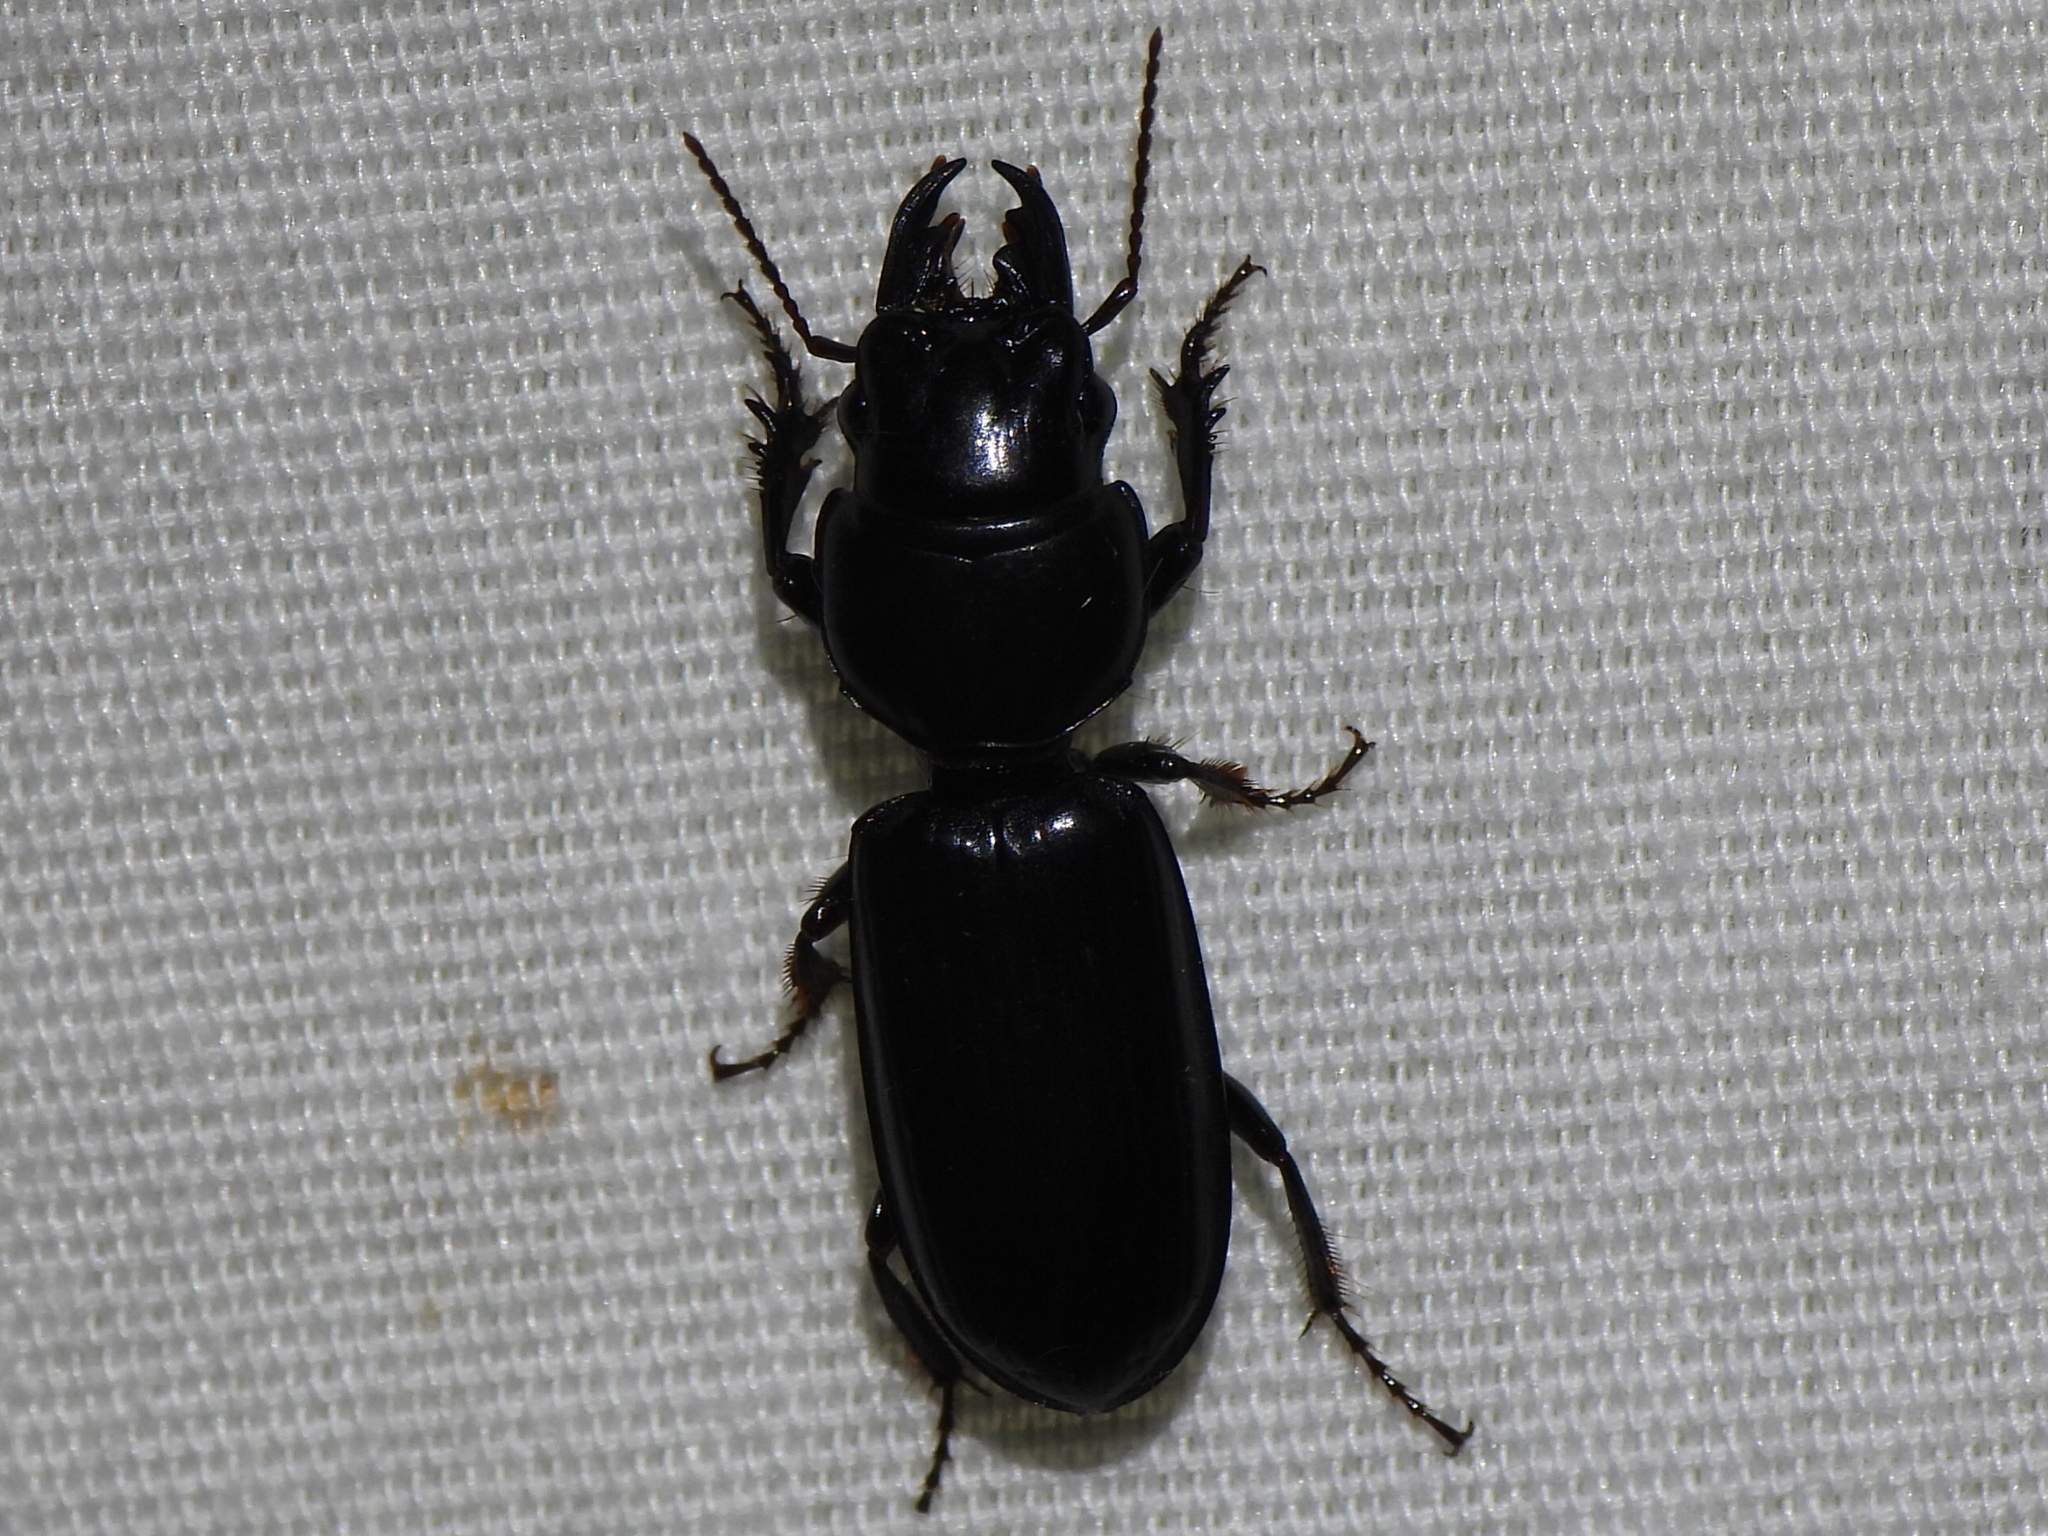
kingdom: Animalia
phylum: Arthropoda
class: Insecta
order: Coleoptera
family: Carabidae
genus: Scarites
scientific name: Scarites subterraneus
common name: Big-headed ground beetle
